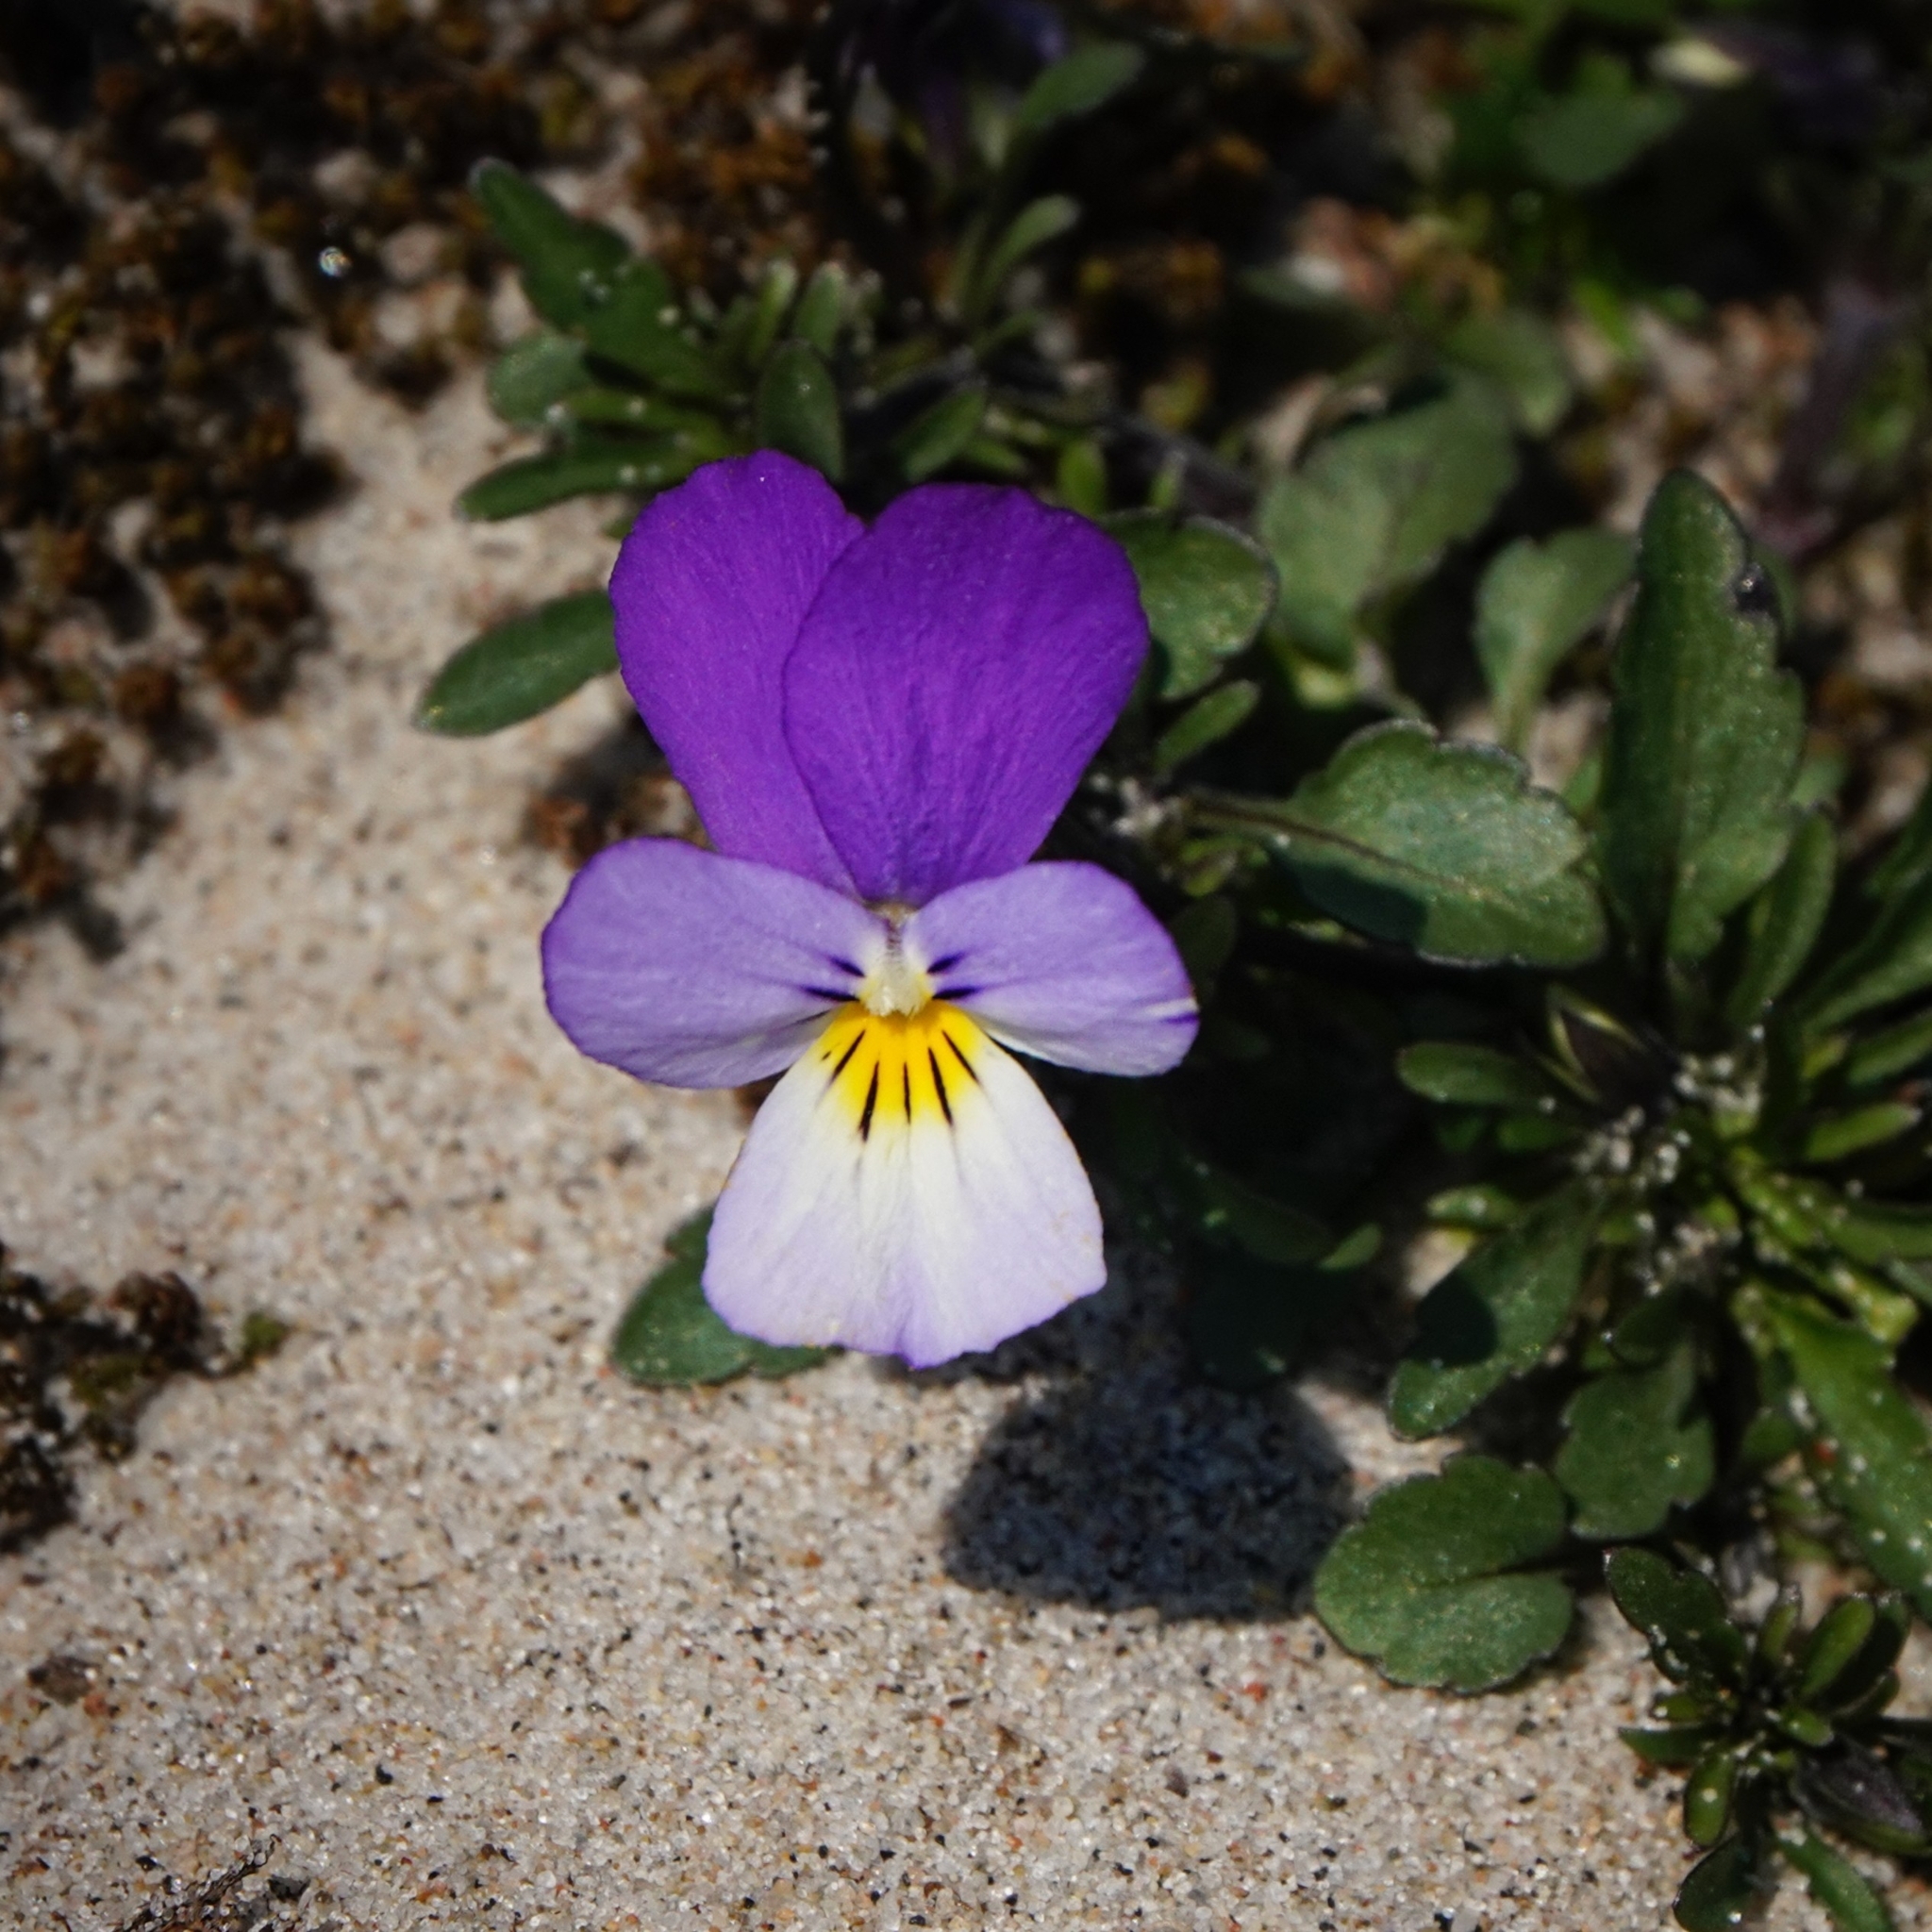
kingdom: Plantae
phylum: Tracheophyta
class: Magnoliopsida
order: Malpighiales
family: Violaceae
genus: Viola
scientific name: Viola tricolor
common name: Pansy
